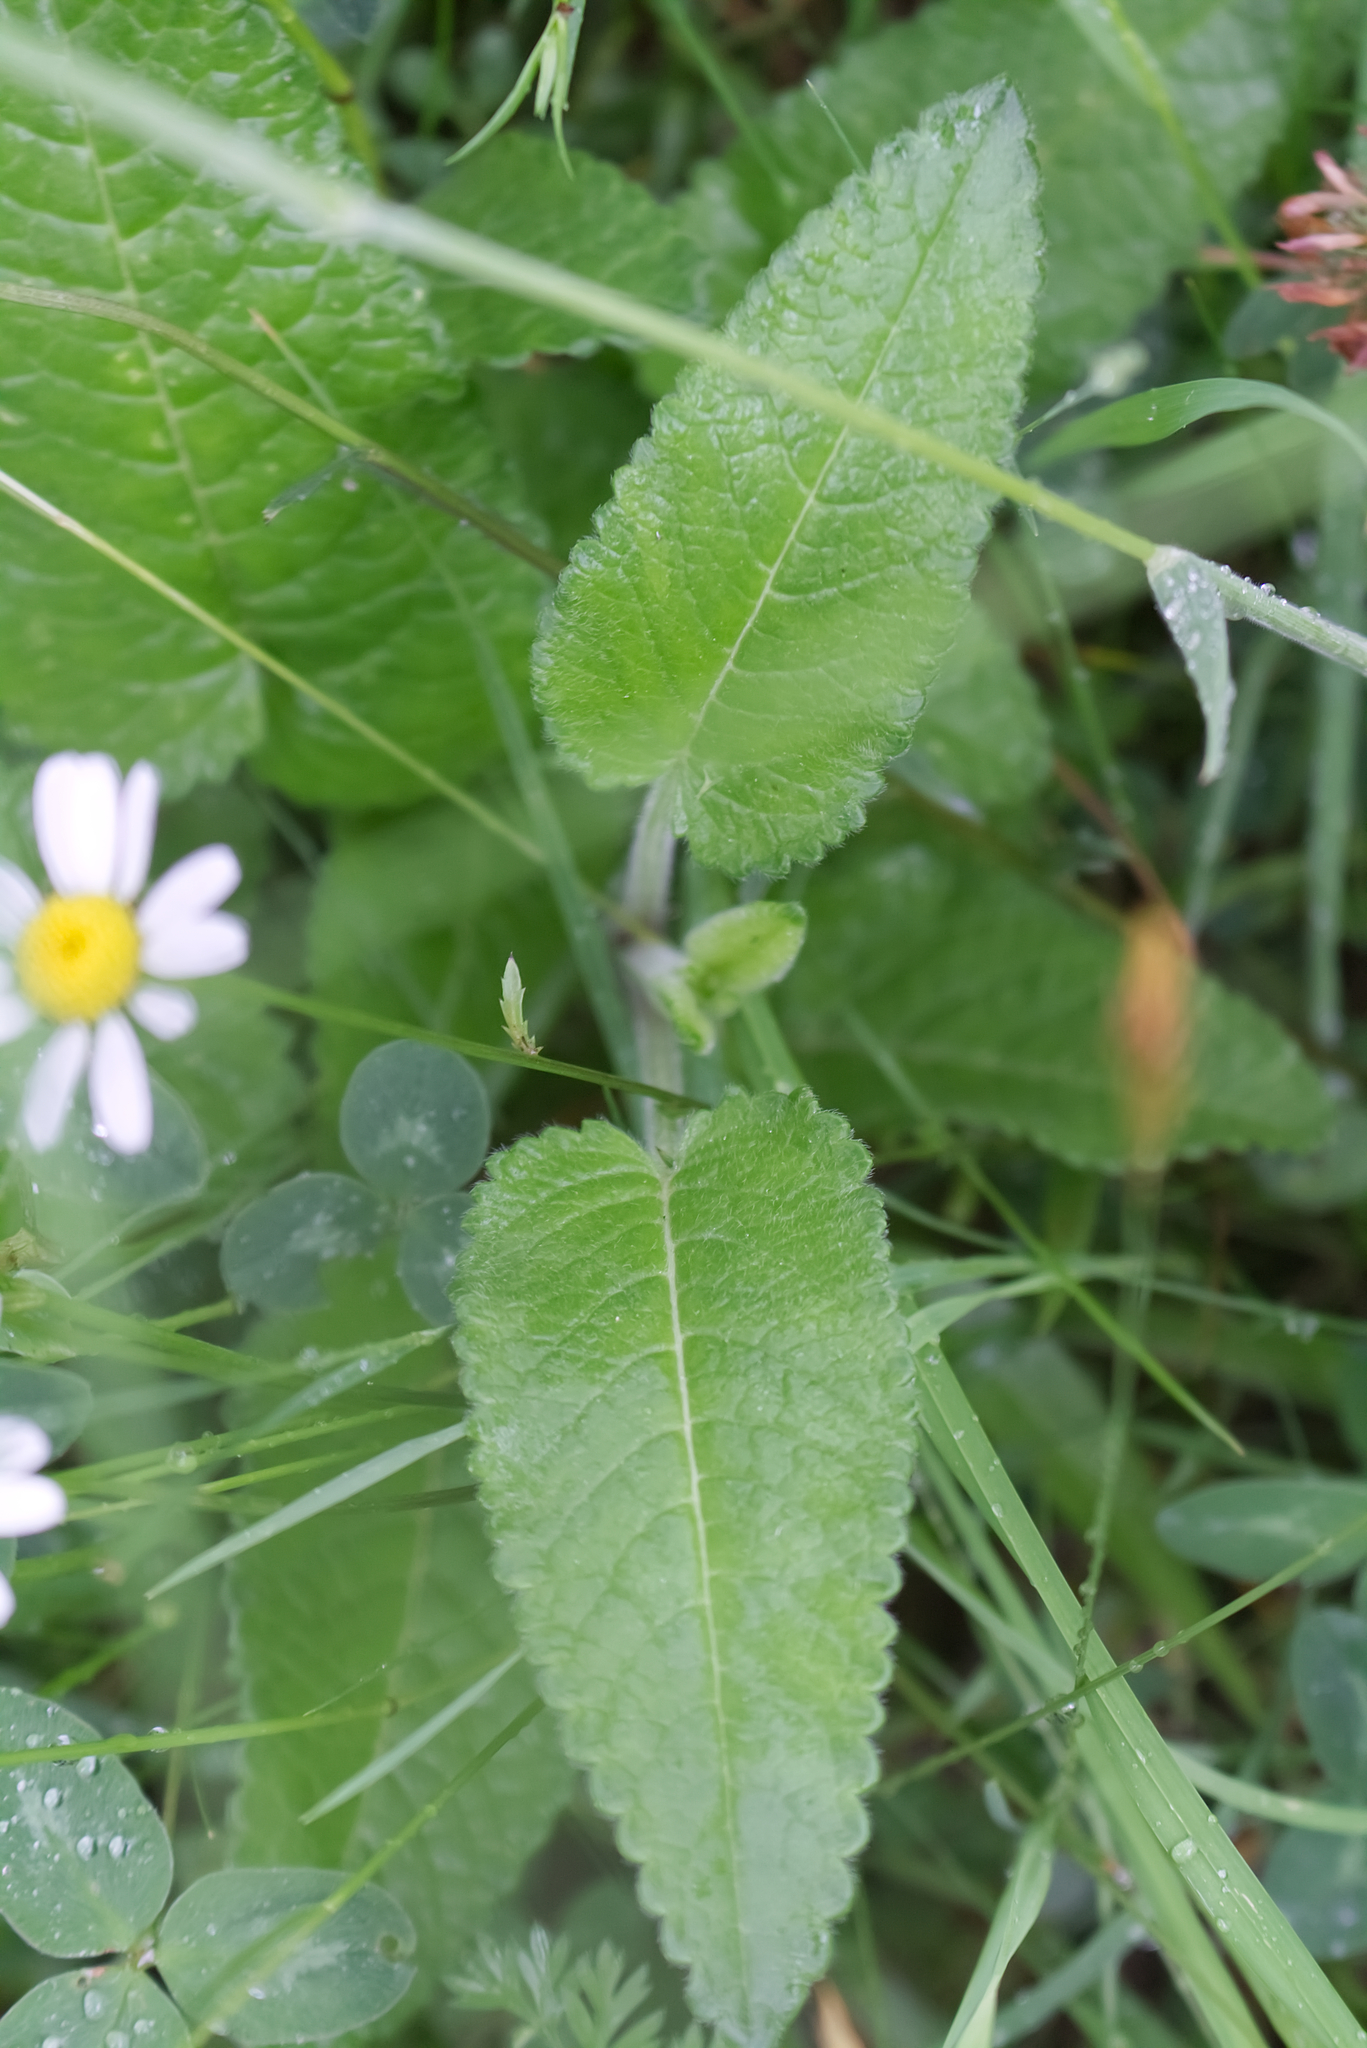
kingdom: Plantae
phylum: Tracheophyta
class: Magnoliopsida
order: Lamiales
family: Lamiaceae
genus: Betonica
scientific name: Betonica officinalis
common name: Bishop's-wort
